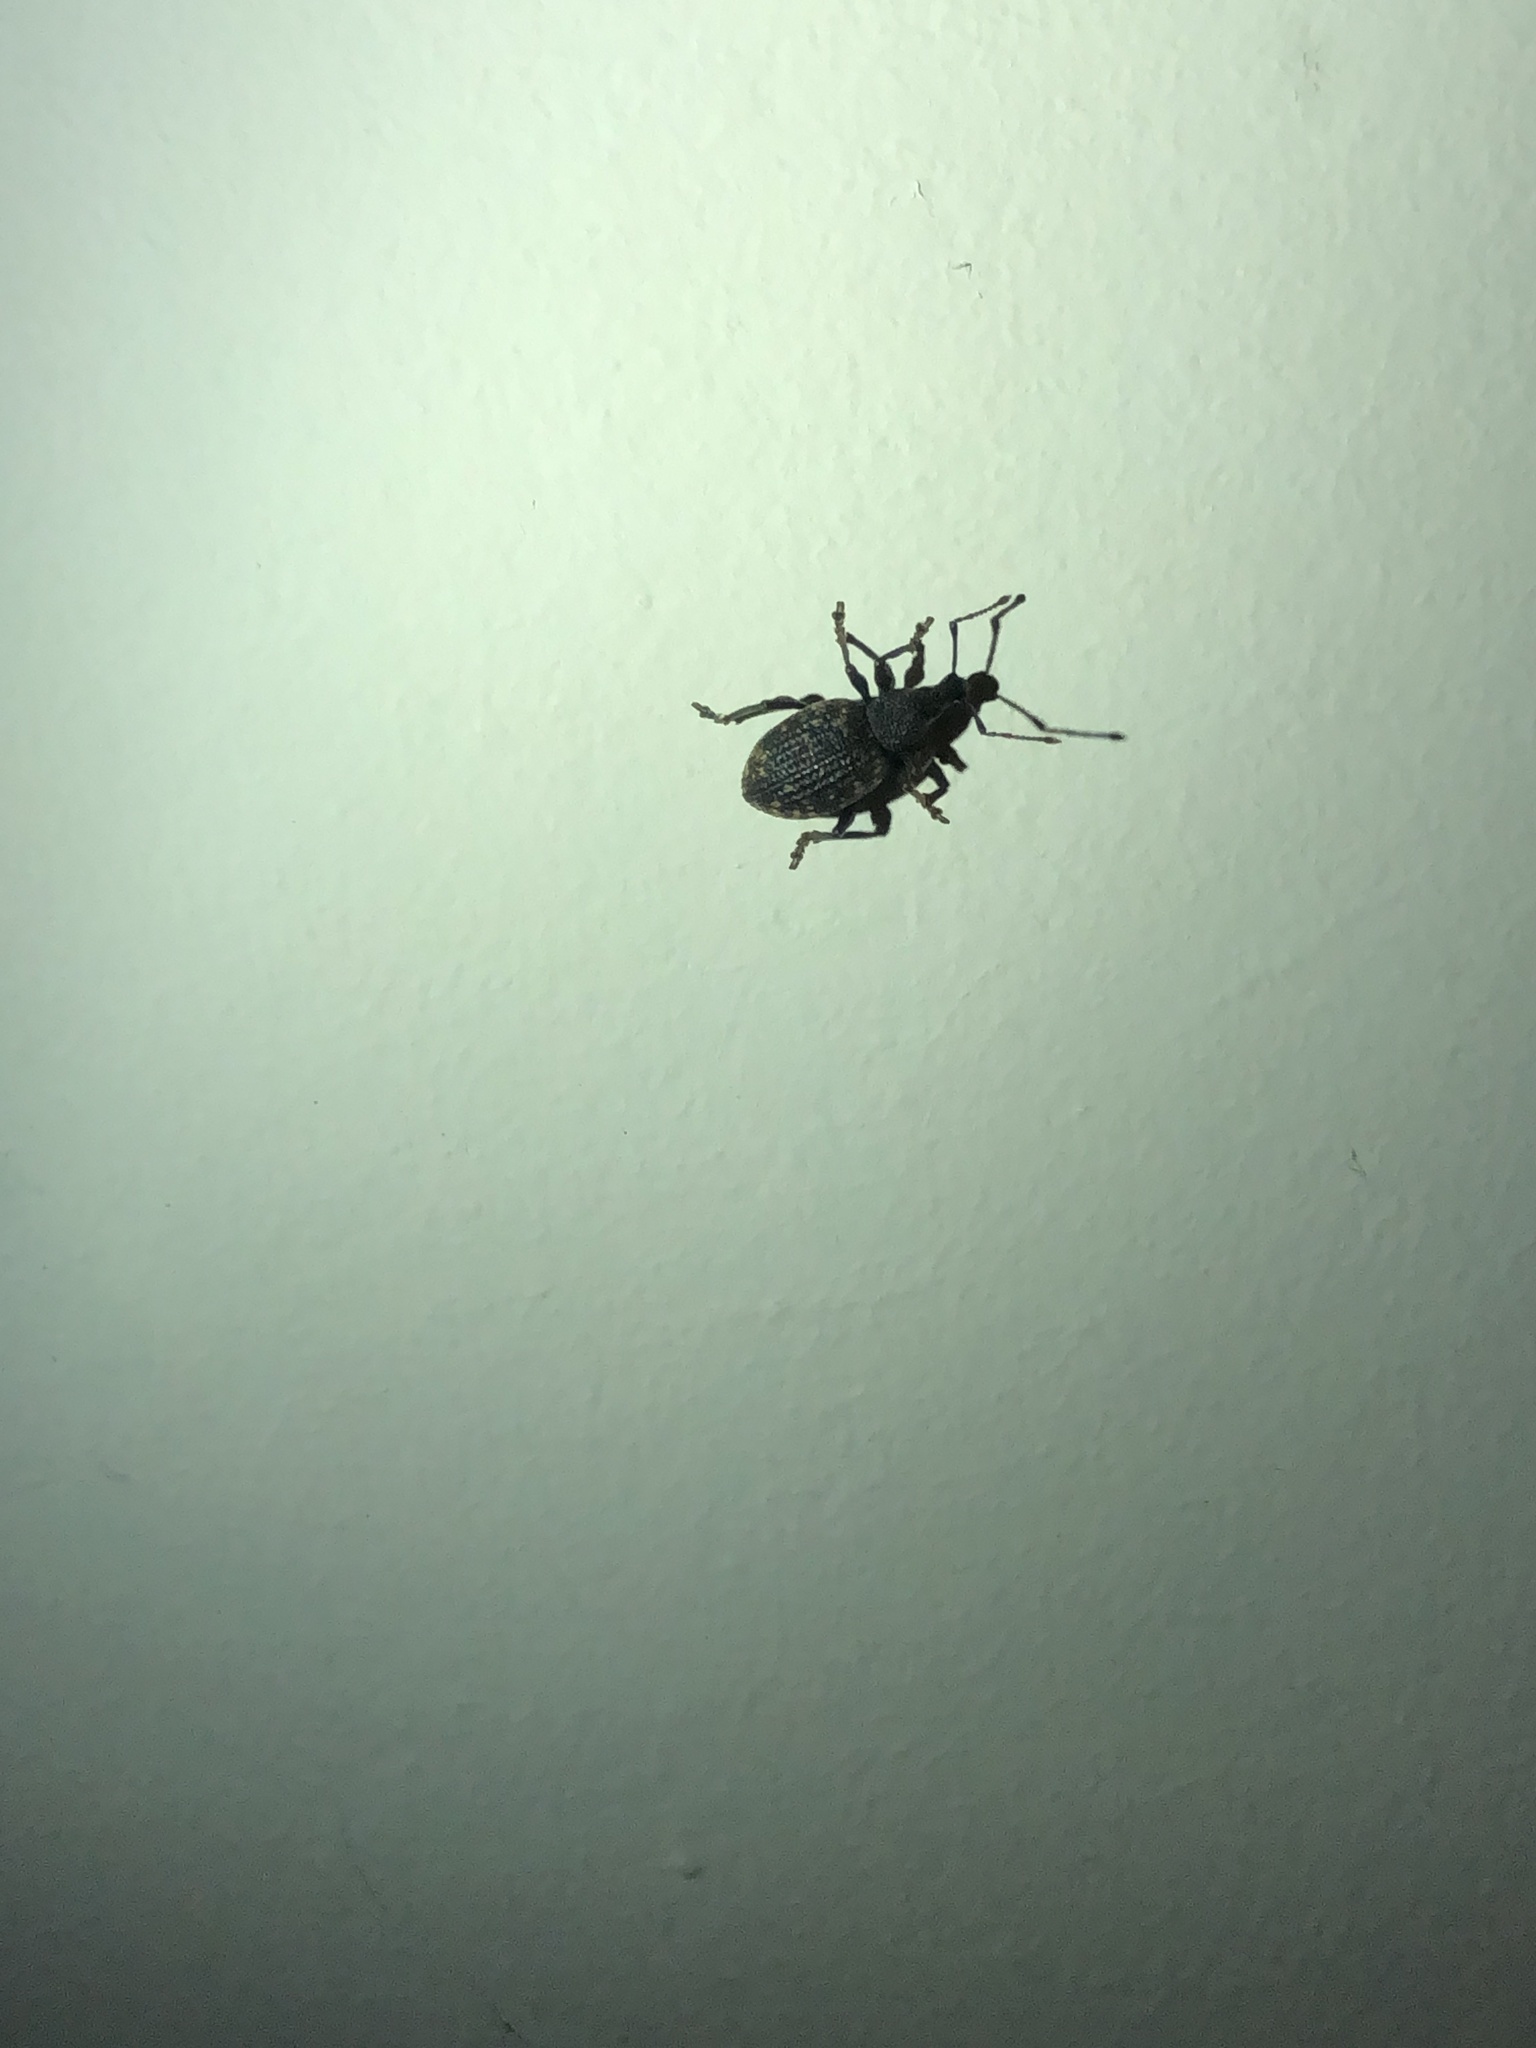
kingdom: Animalia
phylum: Arthropoda
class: Insecta
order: Coleoptera
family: Curculionidae
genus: Otiorhynchus
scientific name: Otiorhynchus sulcatus
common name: Black vine weevil
